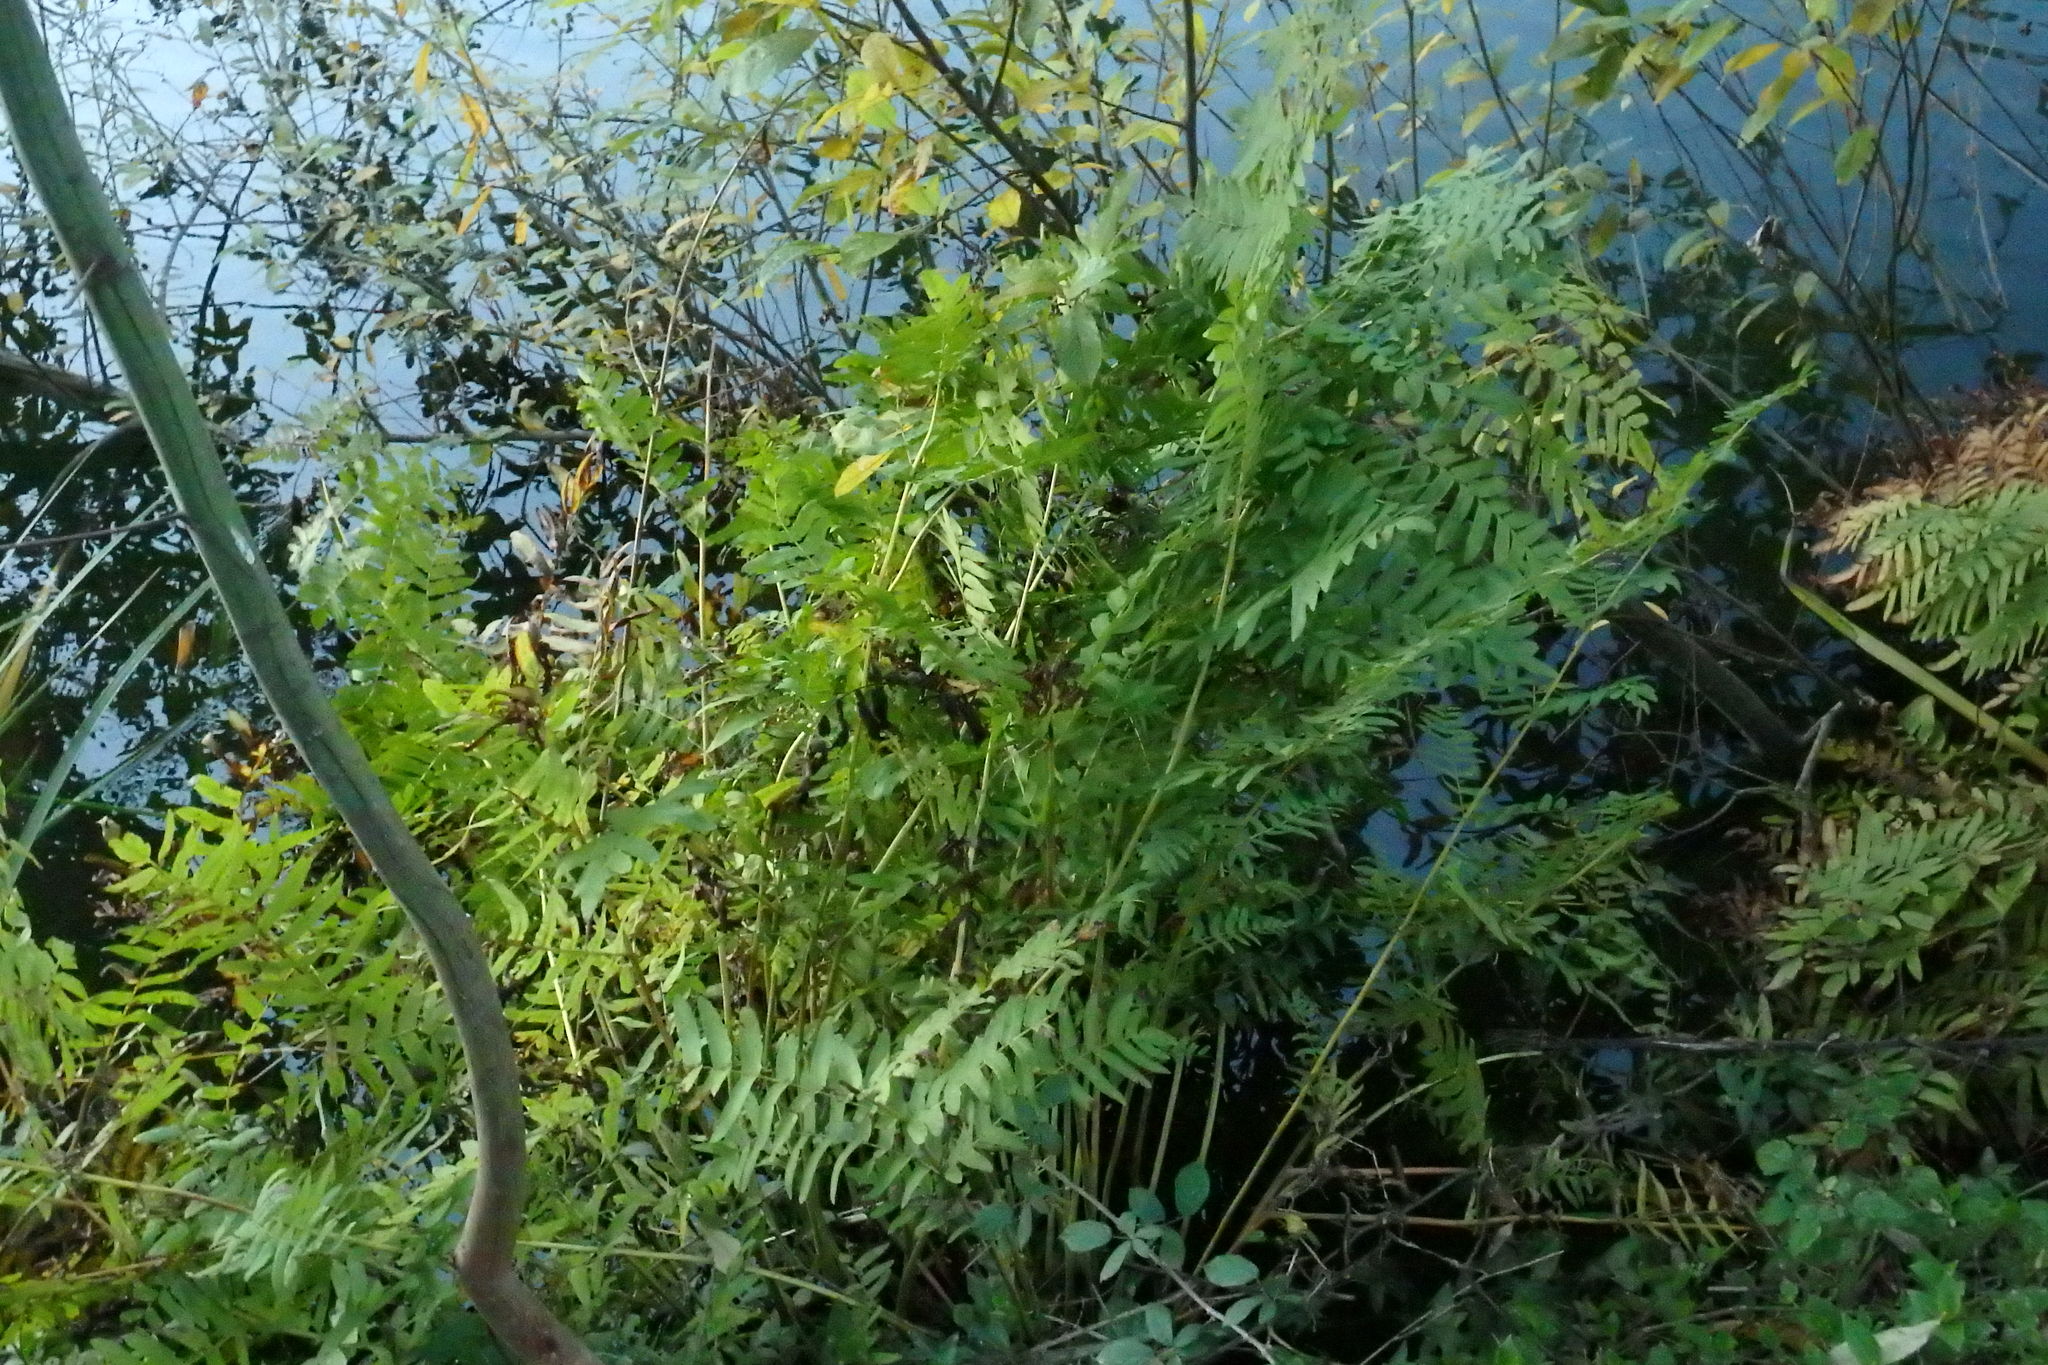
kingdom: Plantae
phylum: Tracheophyta
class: Polypodiopsida
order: Osmundales
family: Osmundaceae
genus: Osmunda
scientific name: Osmunda regalis
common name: Royal fern
